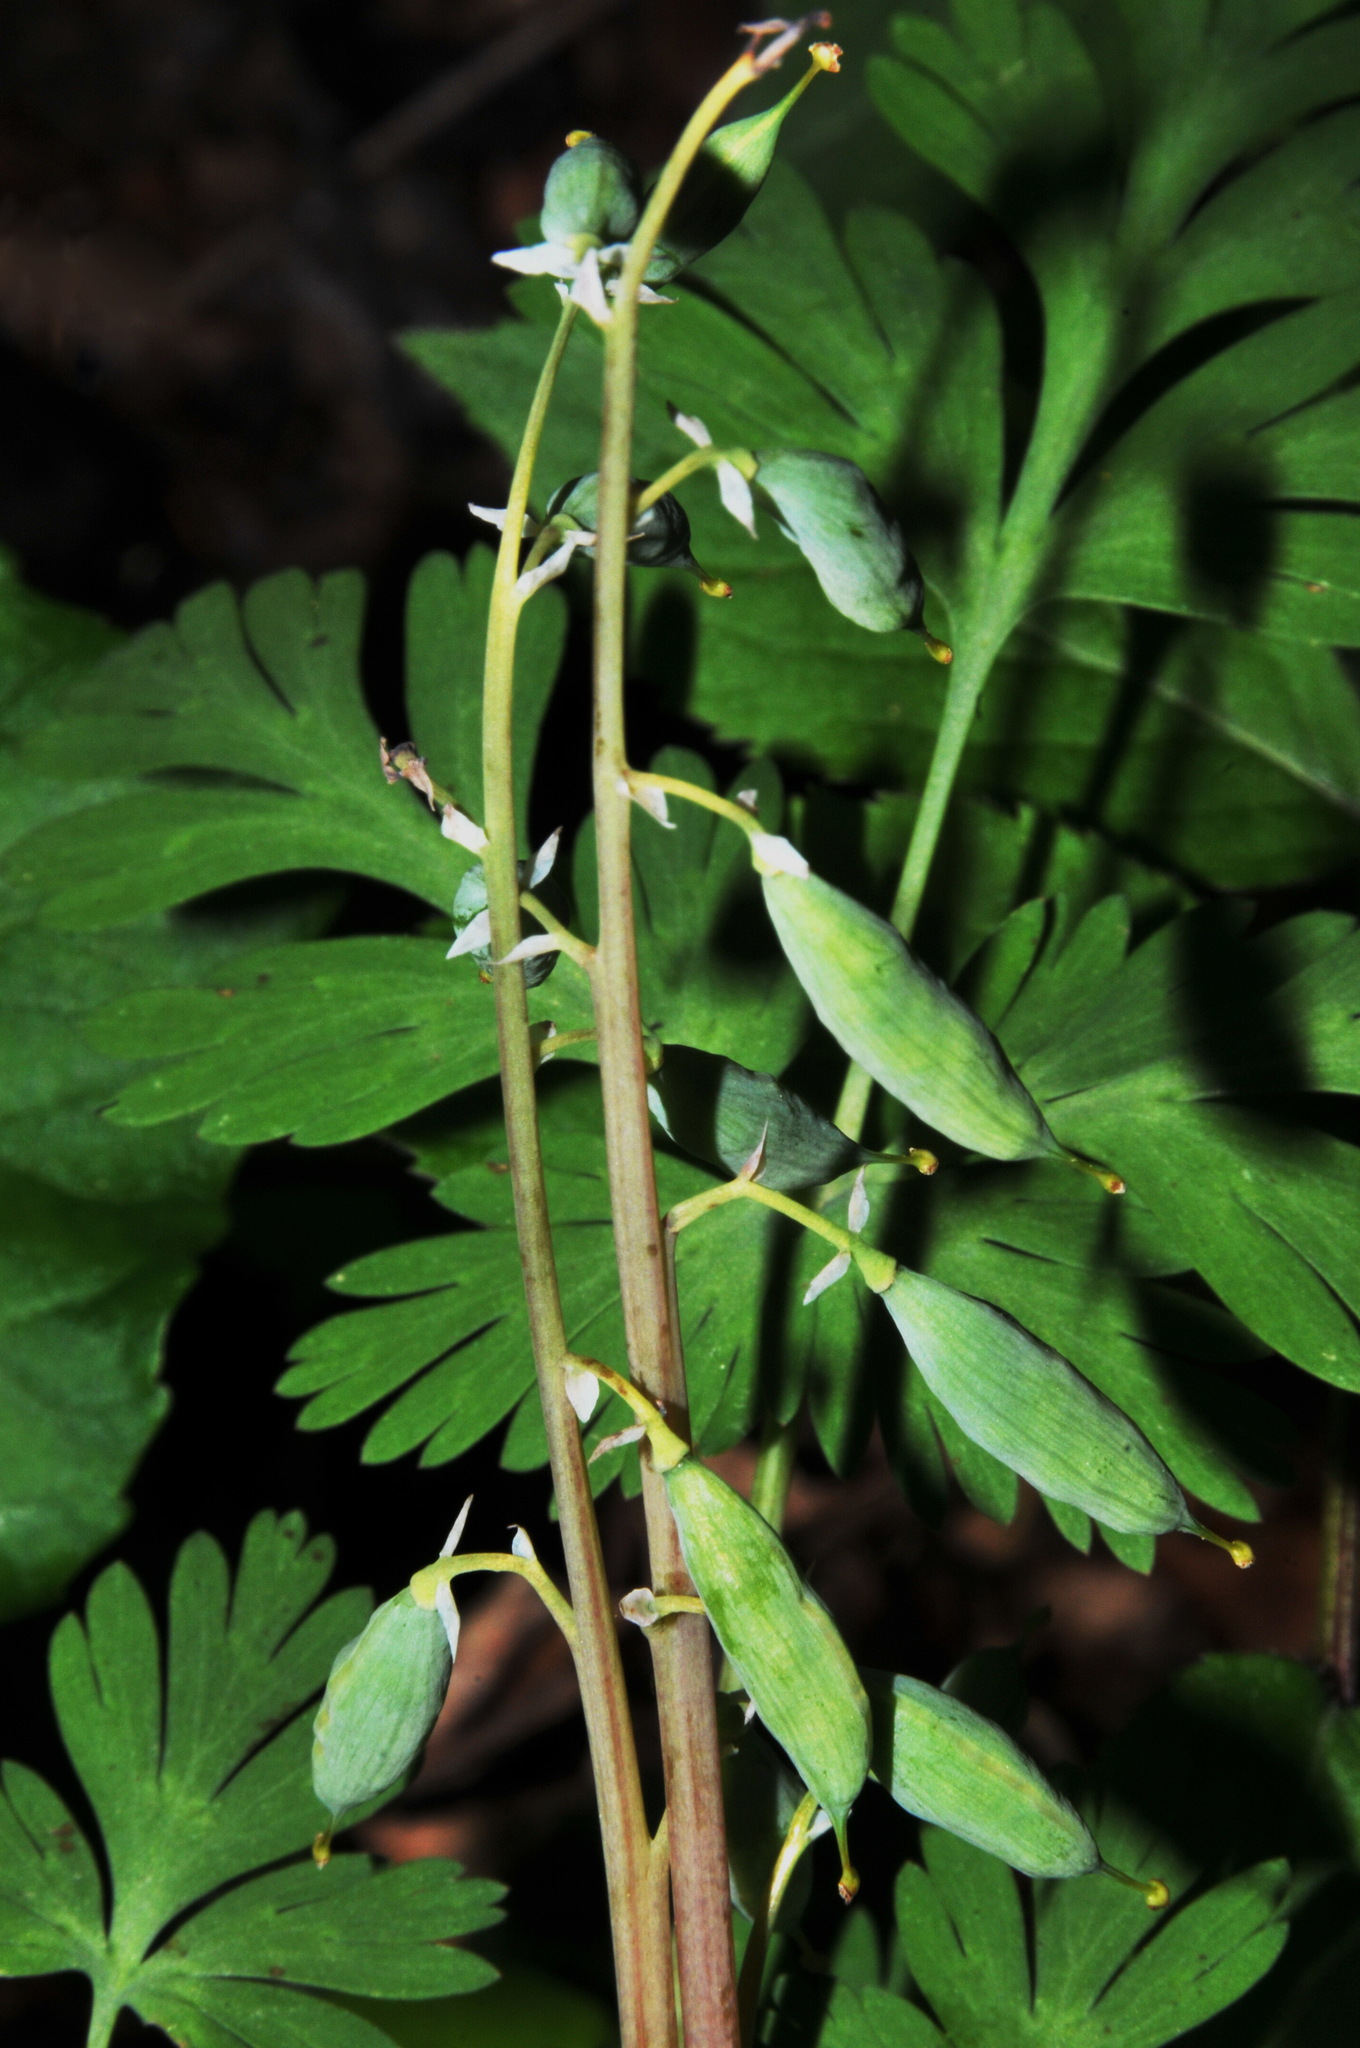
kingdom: Plantae
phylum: Tracheophyta
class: Magnoliopsida
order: Ranunculales
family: Papaveraceae
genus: Dicentra
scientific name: Dicentra cucullaria
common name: Dutchman's breeches
